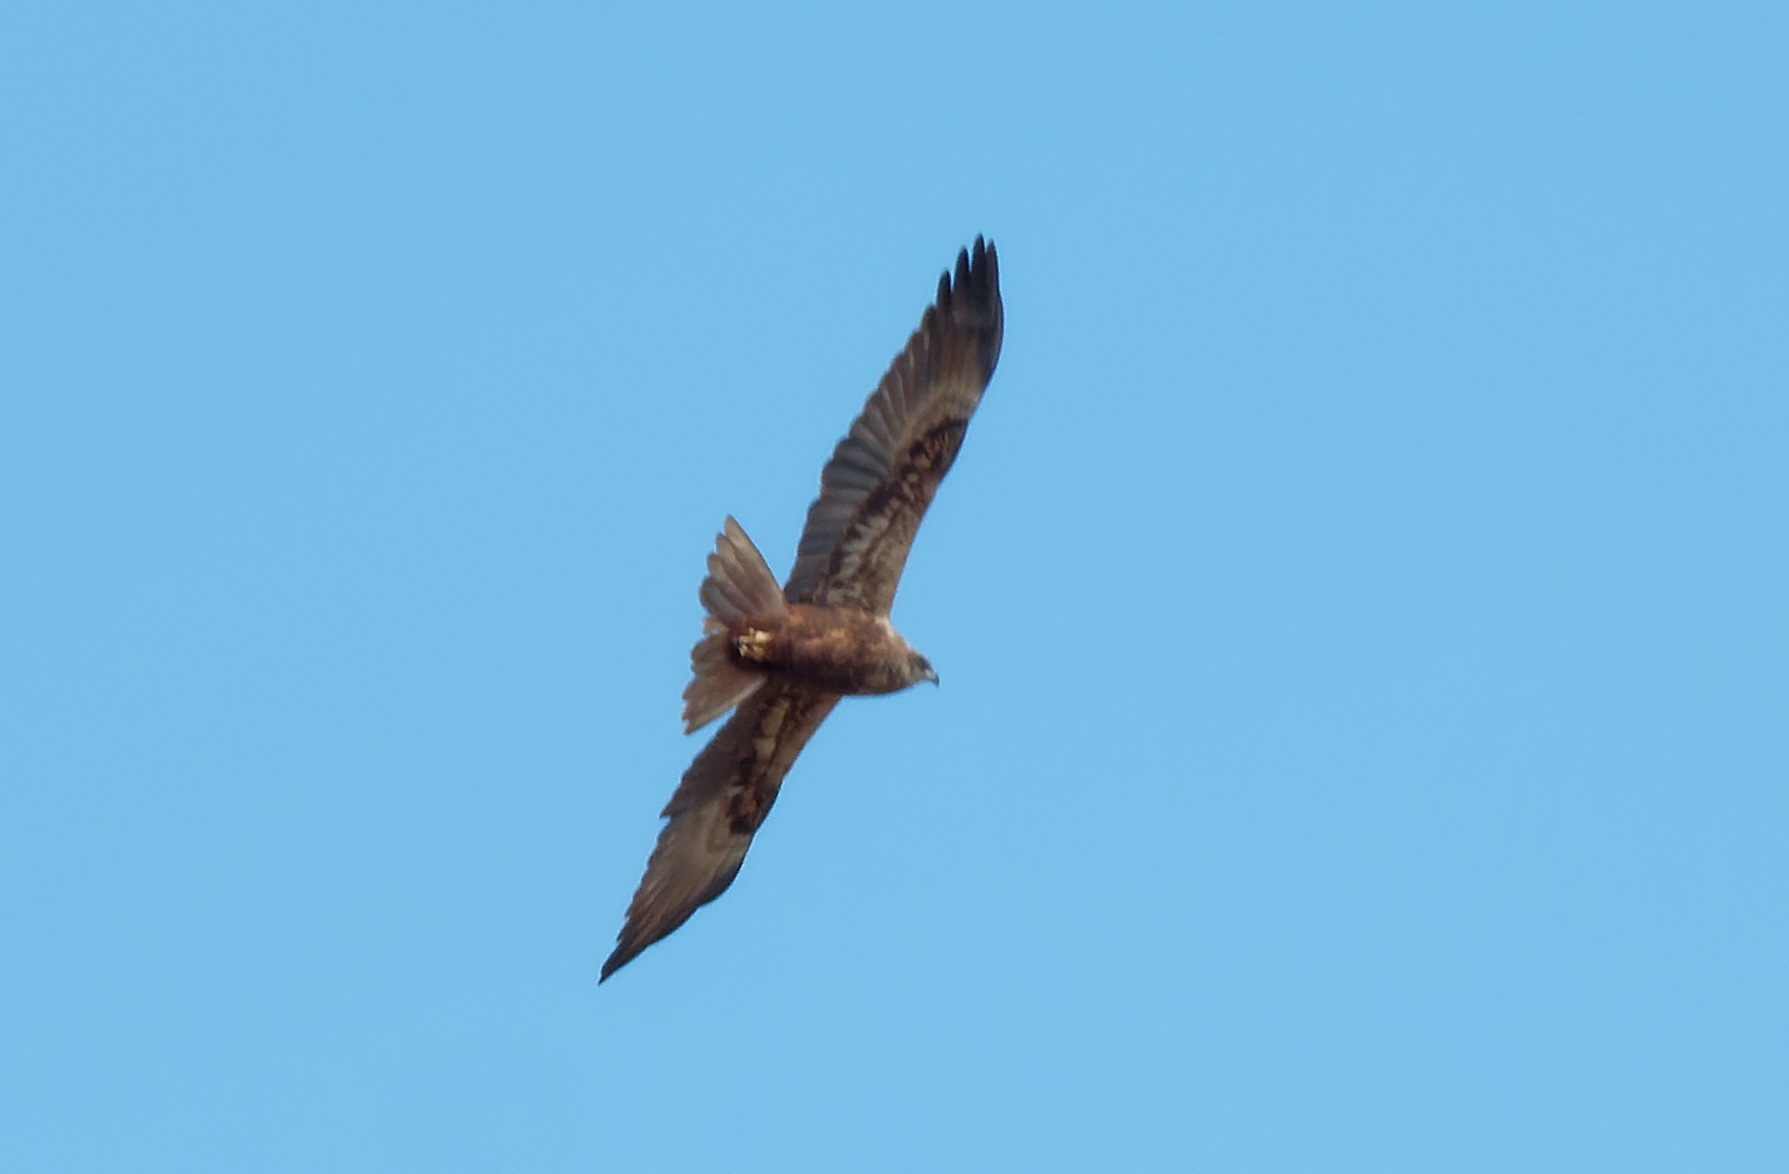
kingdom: Animalia
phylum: Chordata
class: Aves
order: Accipitriformes
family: Accipitridae
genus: Circus
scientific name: Circus aeruginosus
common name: Western marsh harrier
